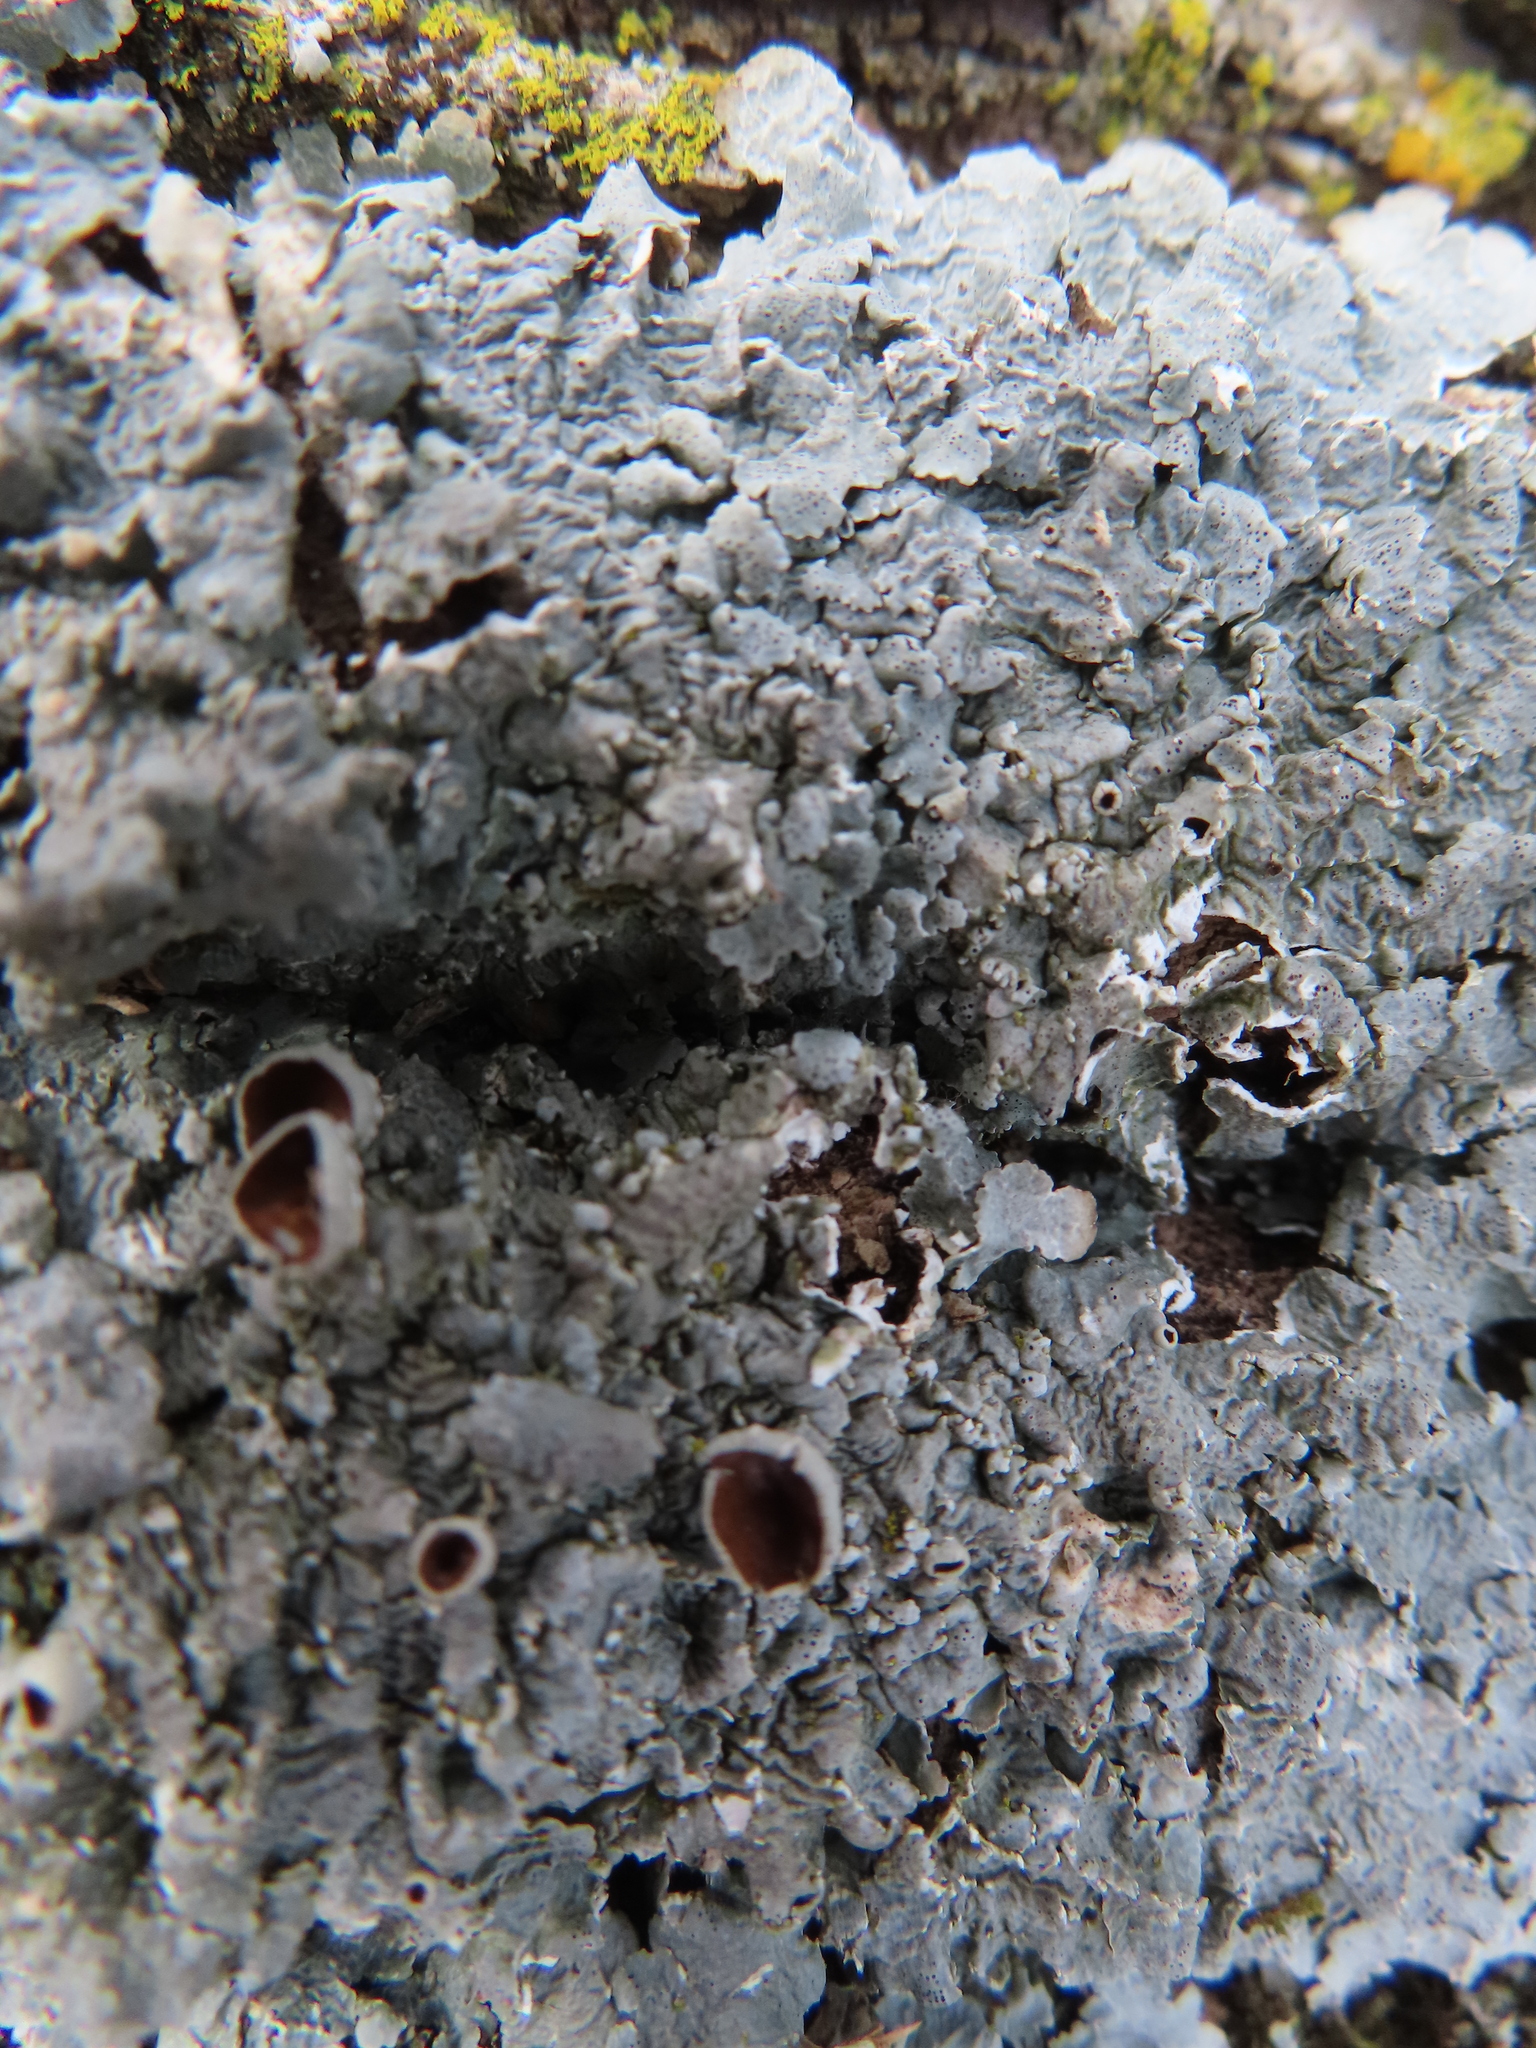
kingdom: Fungi
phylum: Ascomycota
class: Lecanoromycetes
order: Lecanorales
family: Parmeliaceae
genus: Punctelia
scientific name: Punctelia bolliana
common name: Eastern speckled shield lichen
